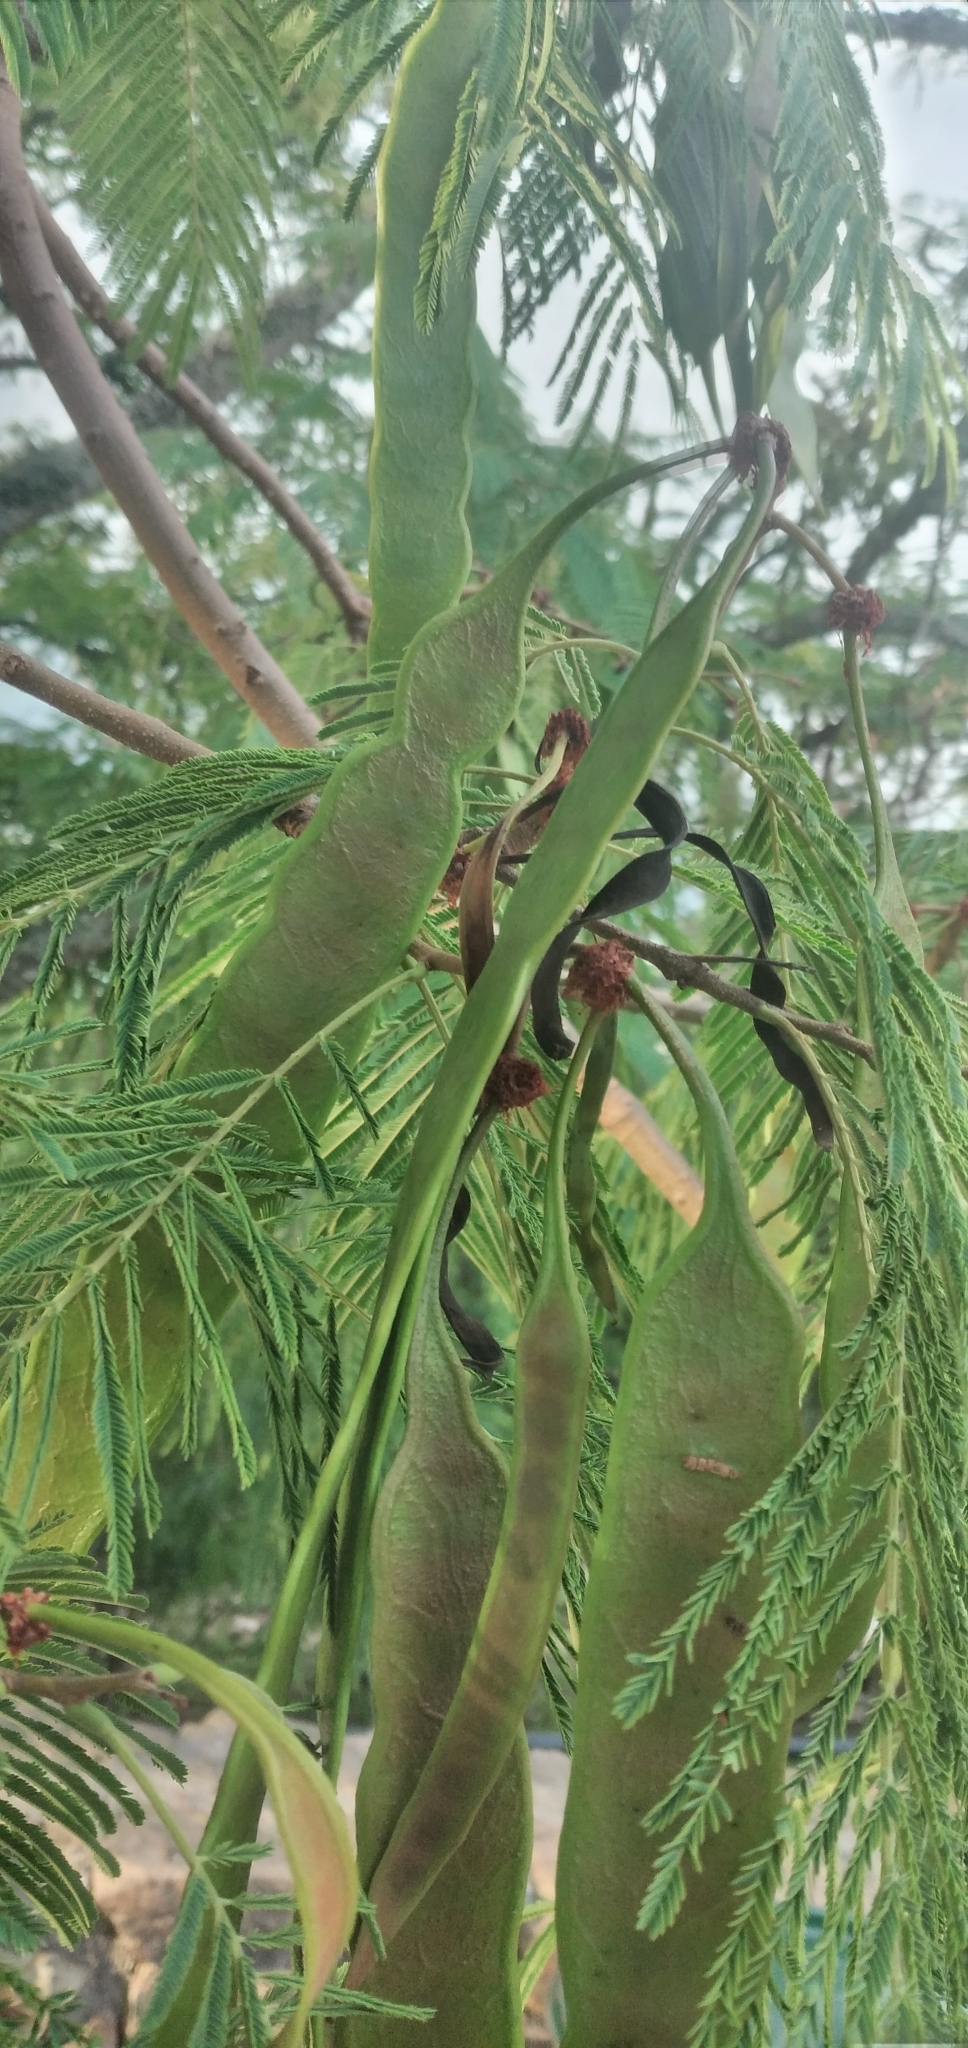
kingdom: Plantae
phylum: Tracheophyta
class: Magnoliopsida
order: Fabales
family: Fabaceae
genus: Anadenanthera
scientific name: Anadenanthera colubrina
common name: Curupay
